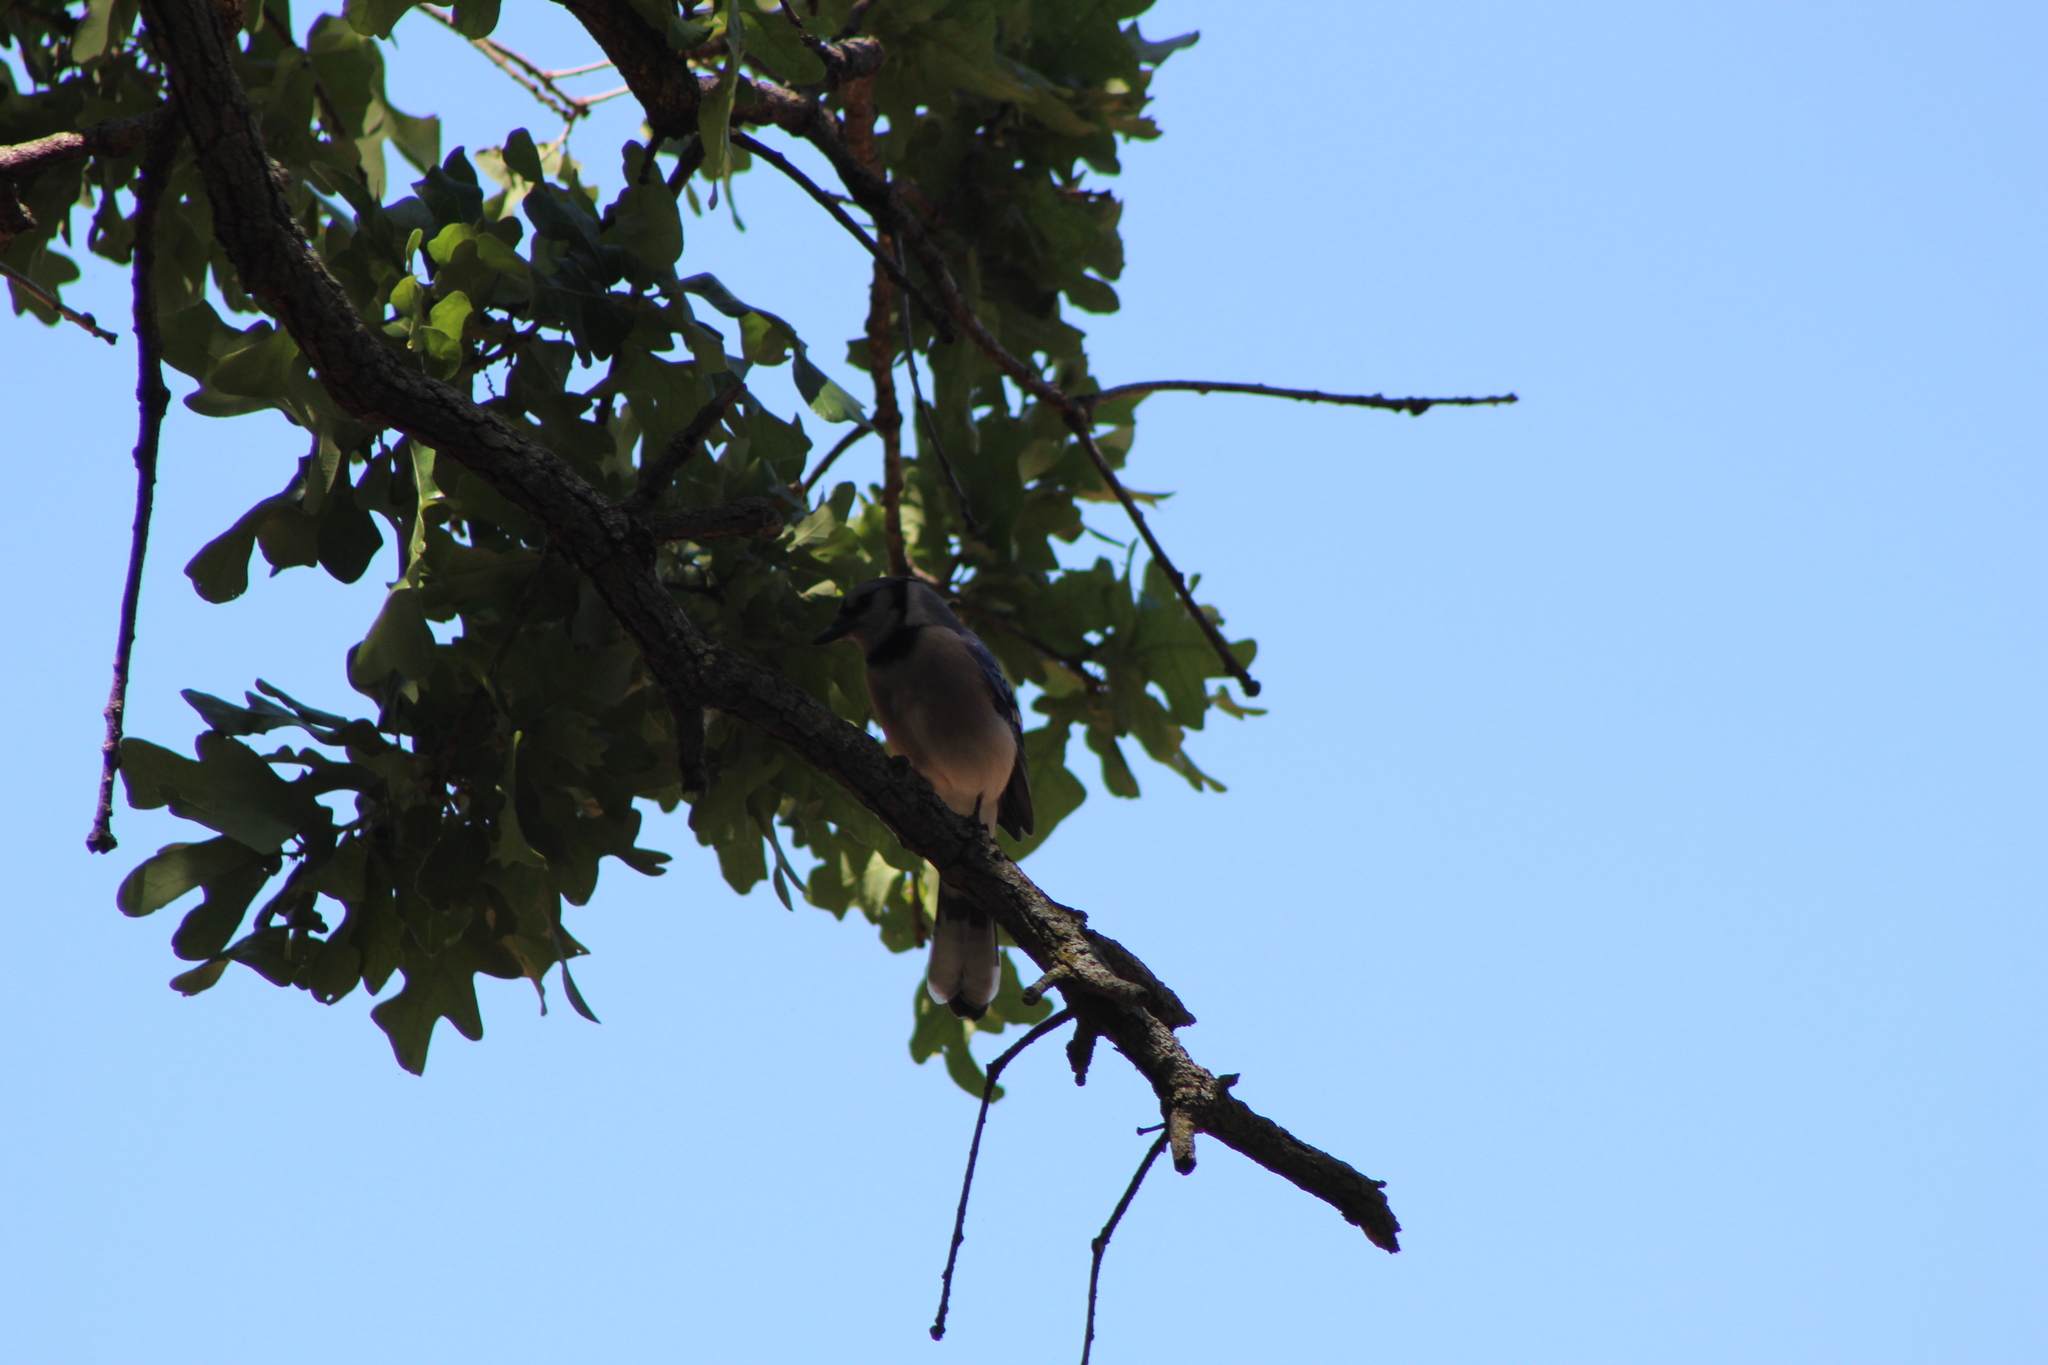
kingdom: Animalia
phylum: Chordata
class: Aves
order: Passeriformes
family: Corvidae
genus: Cyanocitta
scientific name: Cyanocitta cristata
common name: Blue jay
